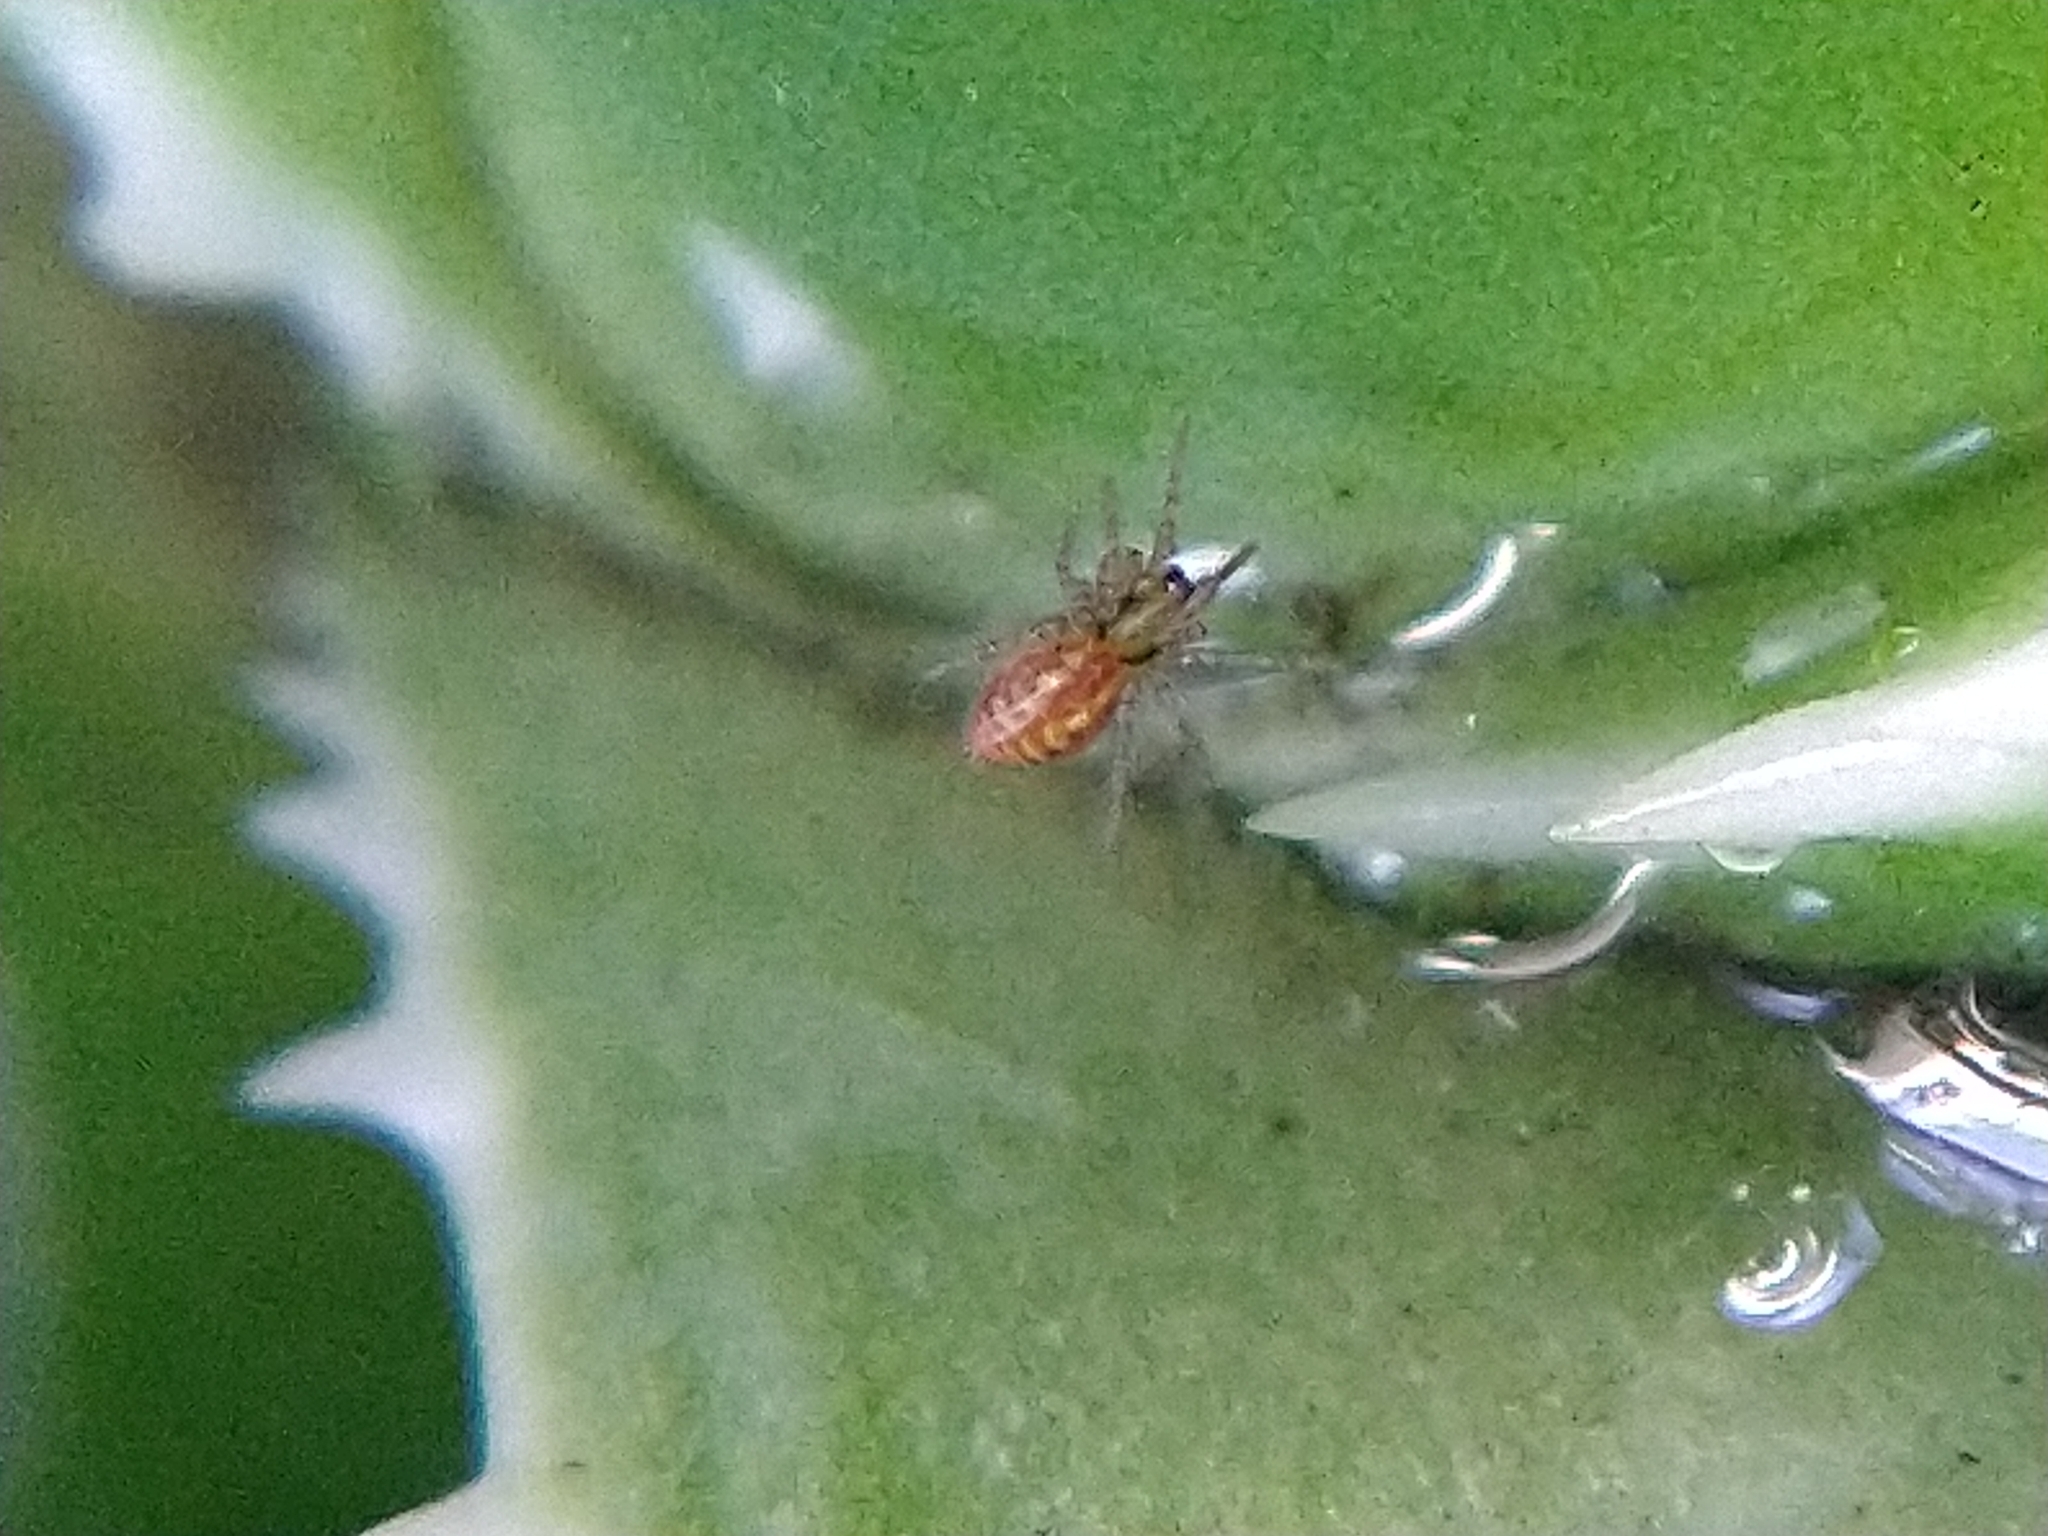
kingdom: Animalia
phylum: Arthropoda
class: Arachnida
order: Araneae
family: Agelenidae
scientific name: Agelenidae
